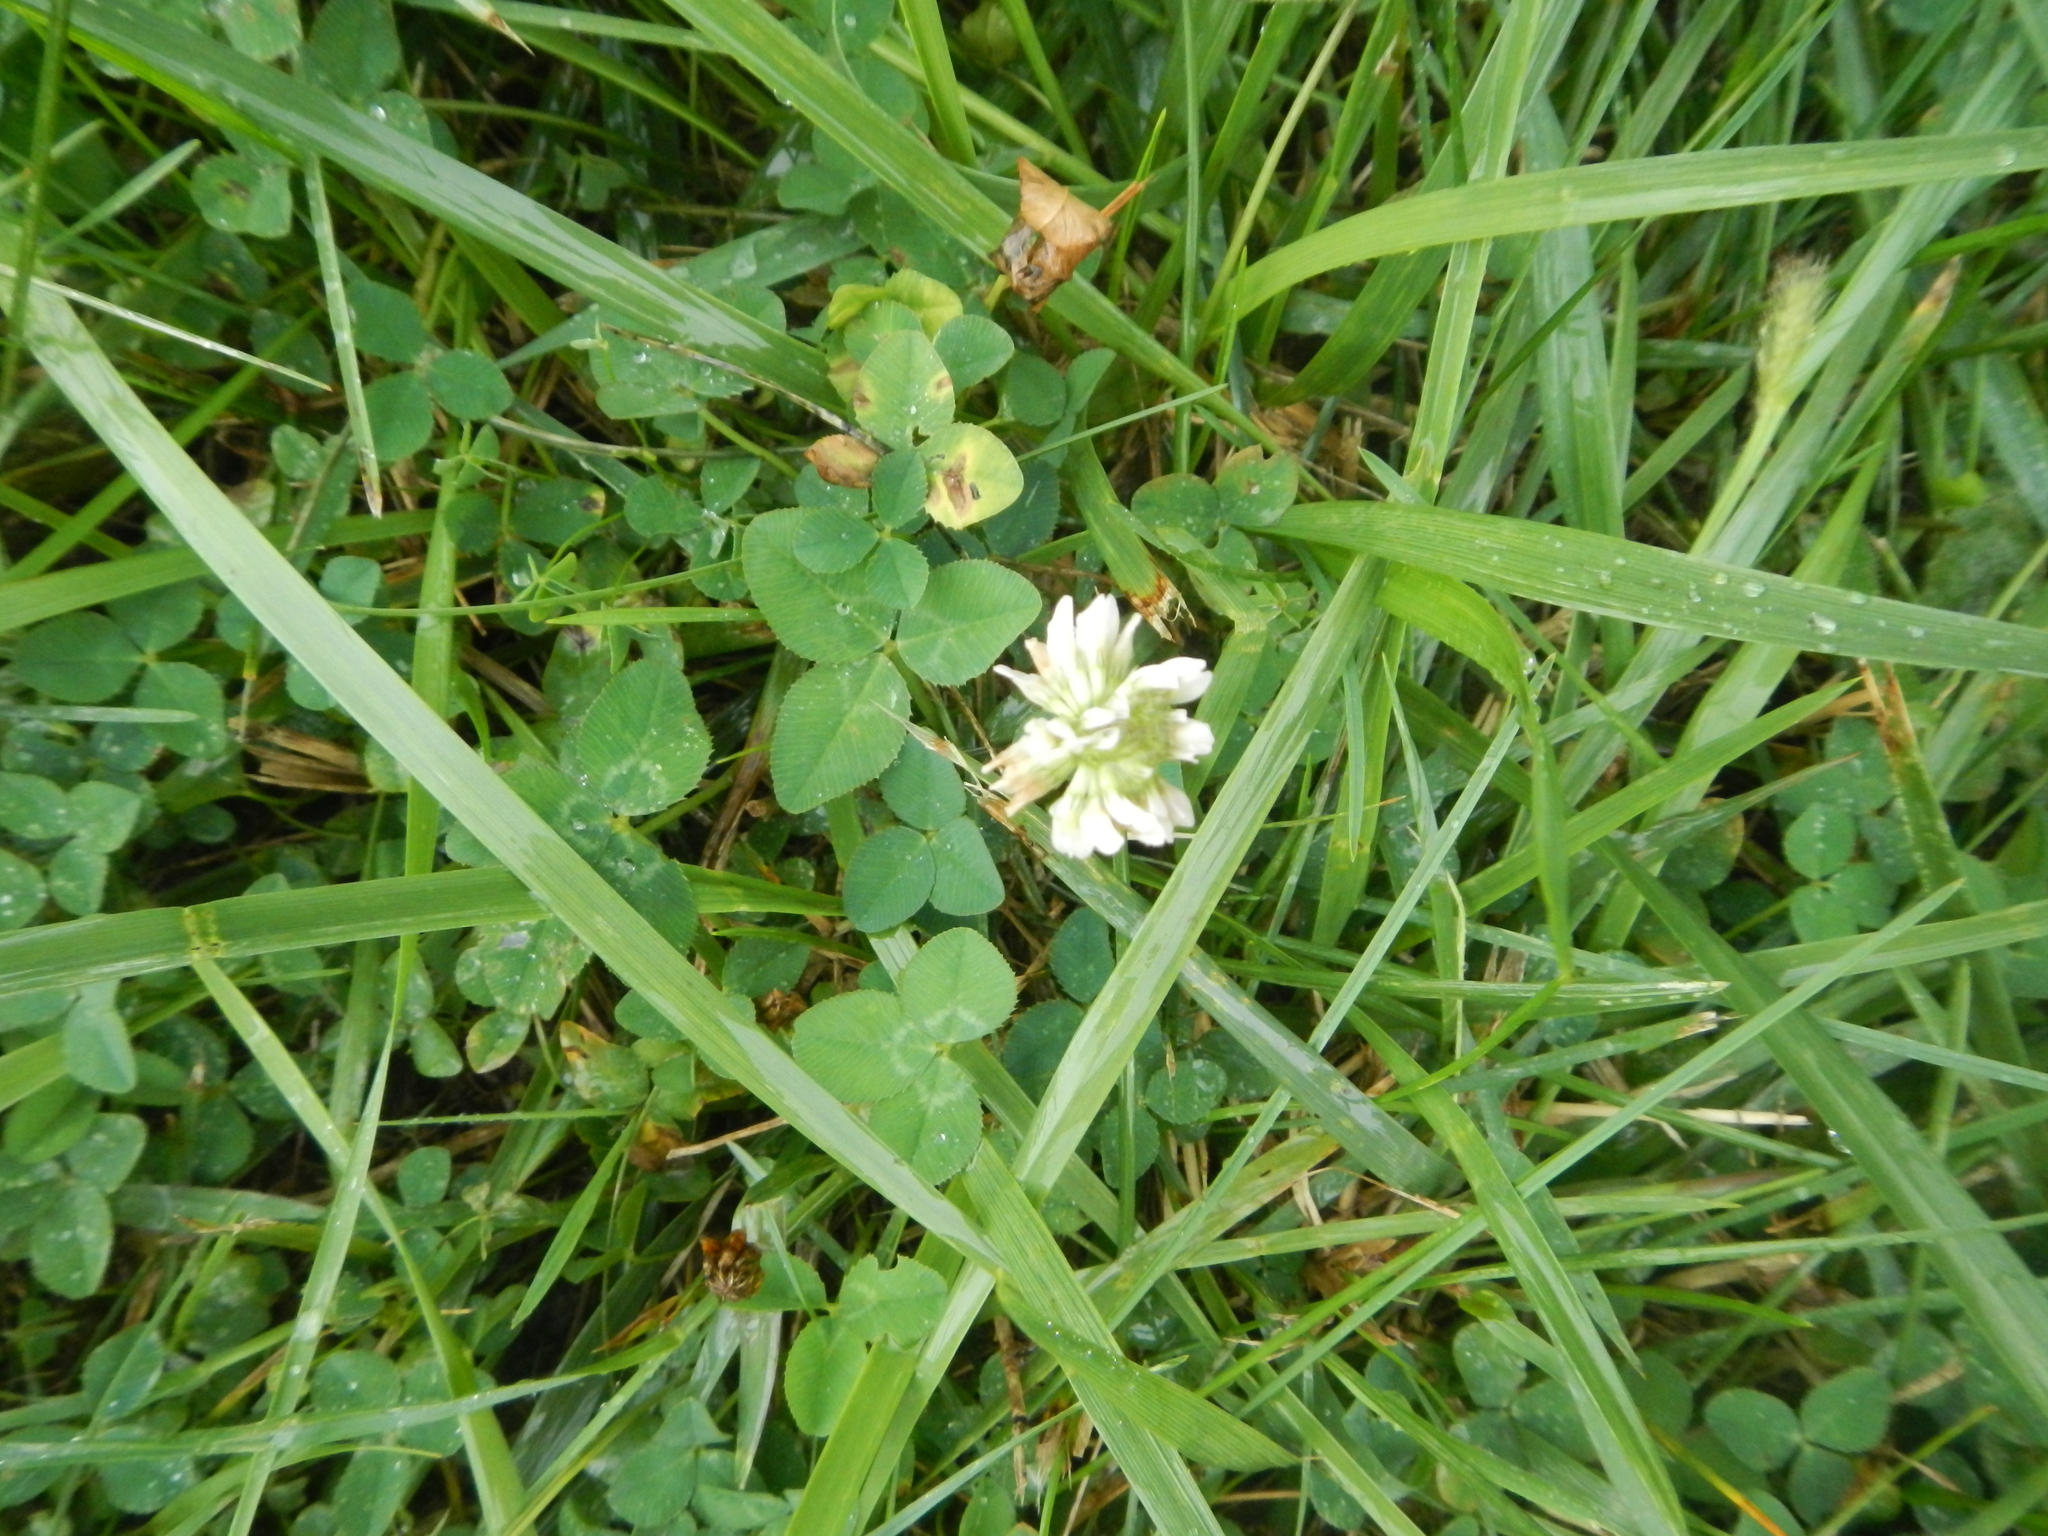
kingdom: Plantae
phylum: Tracheophyta
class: Magnoliopsida
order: Fabales
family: Fabaceae
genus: Trifolium
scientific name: Trifolium repens
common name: White clover
